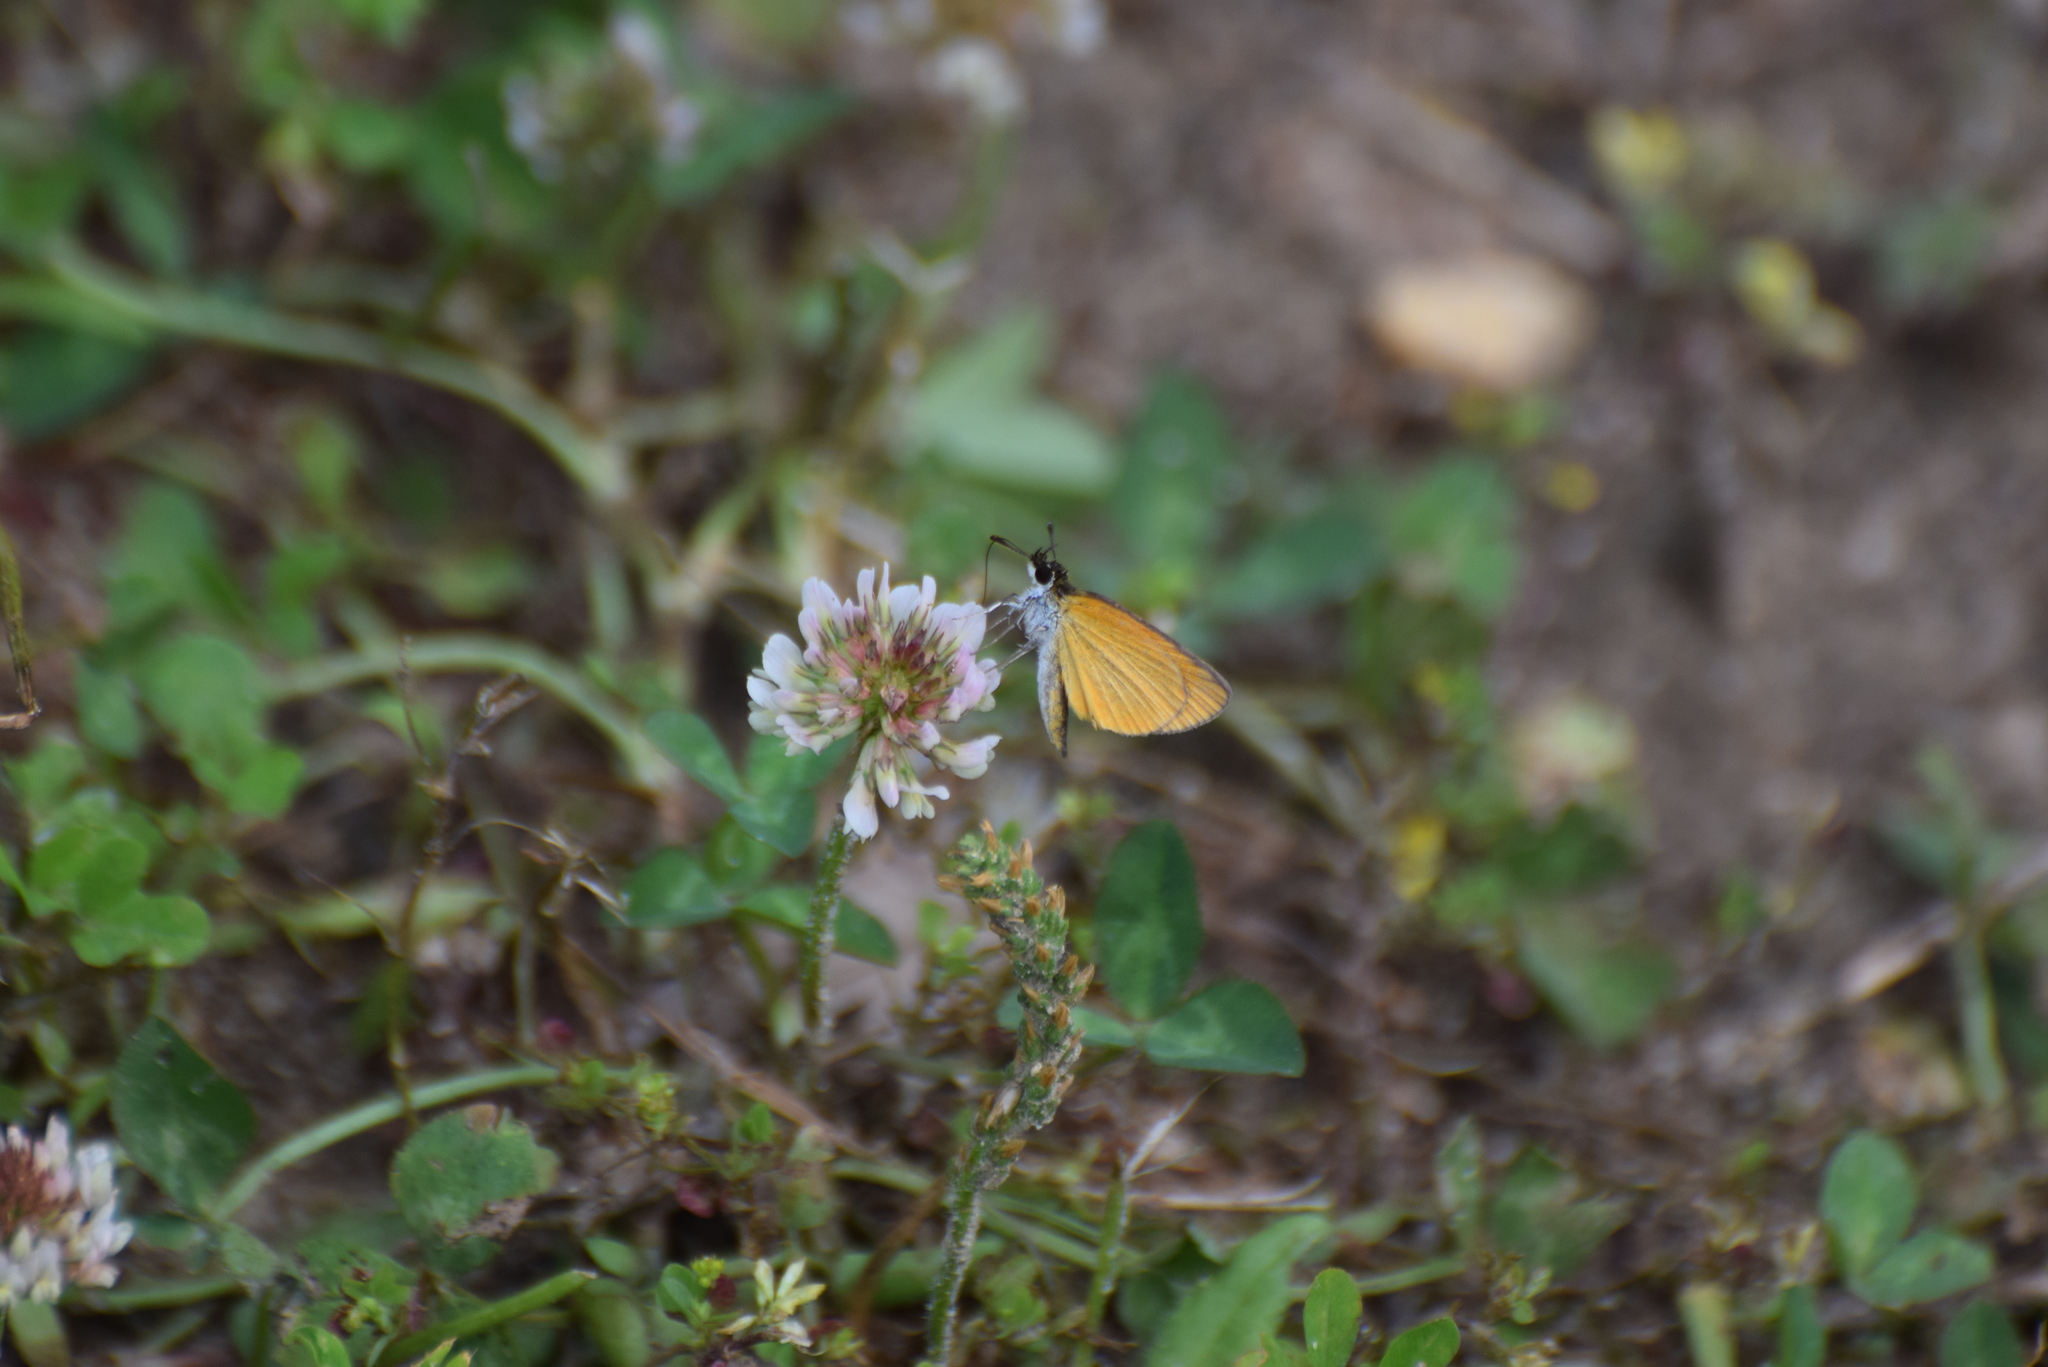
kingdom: Animalia
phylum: Arthropoda
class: Insecta
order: Lepidoptera
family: Hesperiidae
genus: Ancyloxypha
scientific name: Ancyloxypha numitor
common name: Least skipper
